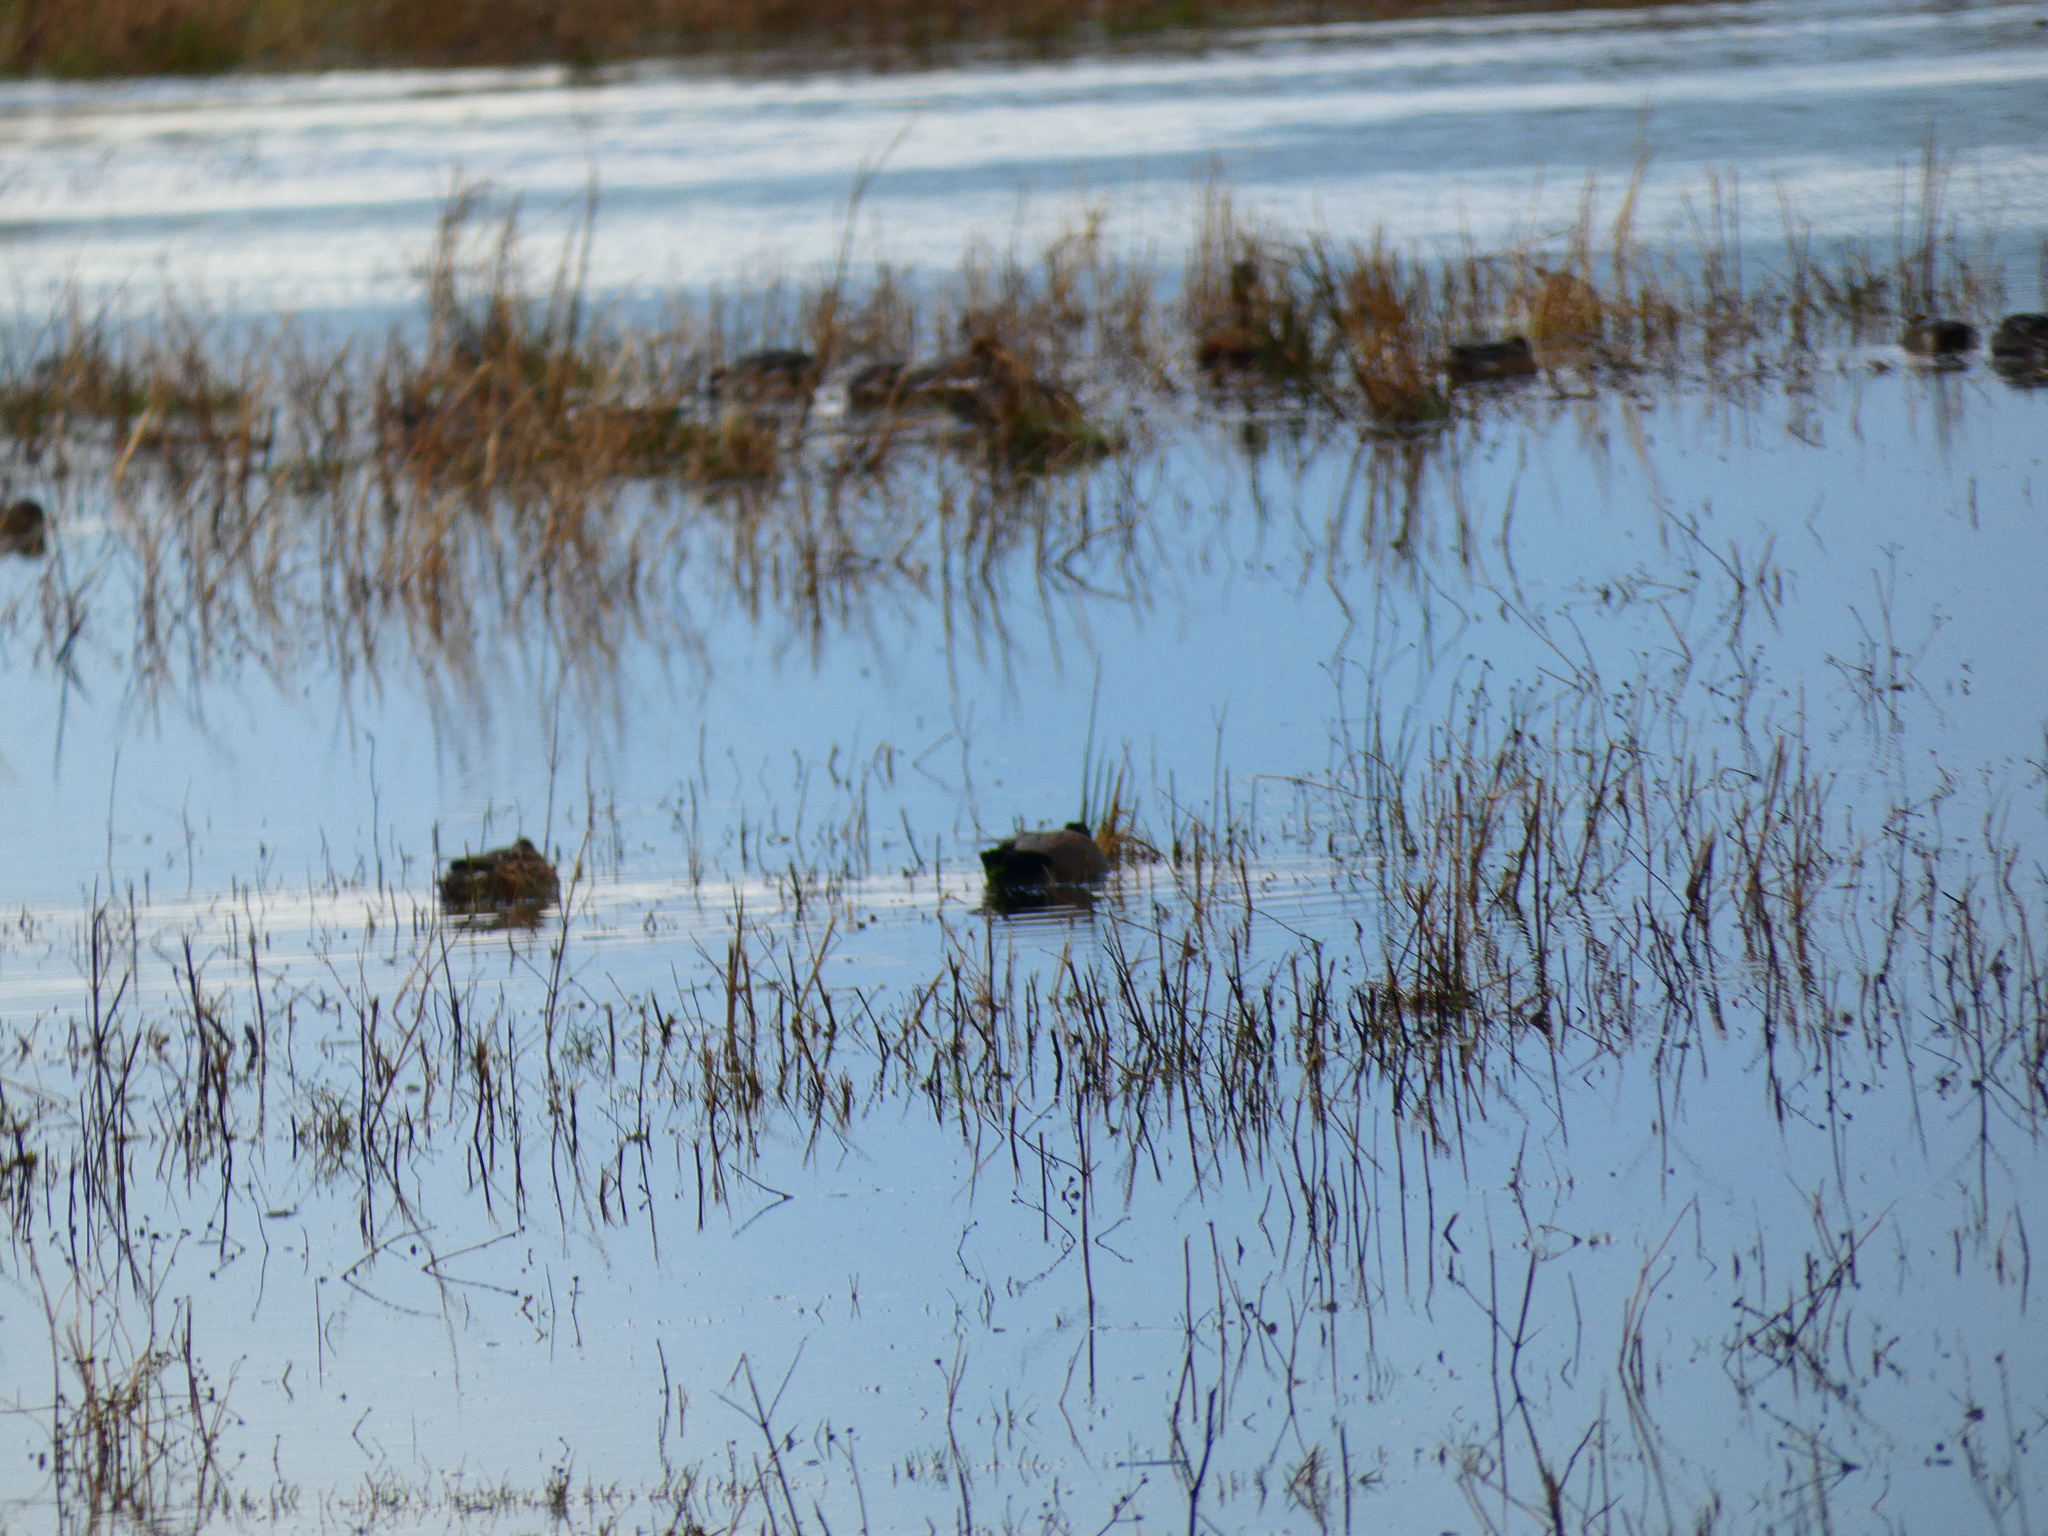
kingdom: Animalia
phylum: Chordata
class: Aves
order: Anseriformes
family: Anatidae
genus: Mareca
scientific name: Mareca strepera
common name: Gadwall
